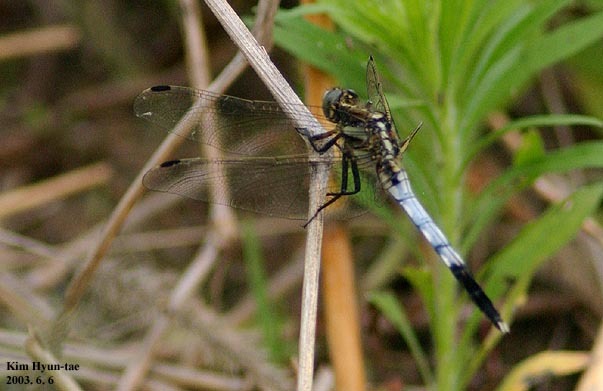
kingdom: Animalia
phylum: Arthropoda
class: Insecta
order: Odonata
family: Libellulidae
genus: Orthetrum
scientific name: Orthetrum albistylum
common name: White-tailed skimmer
